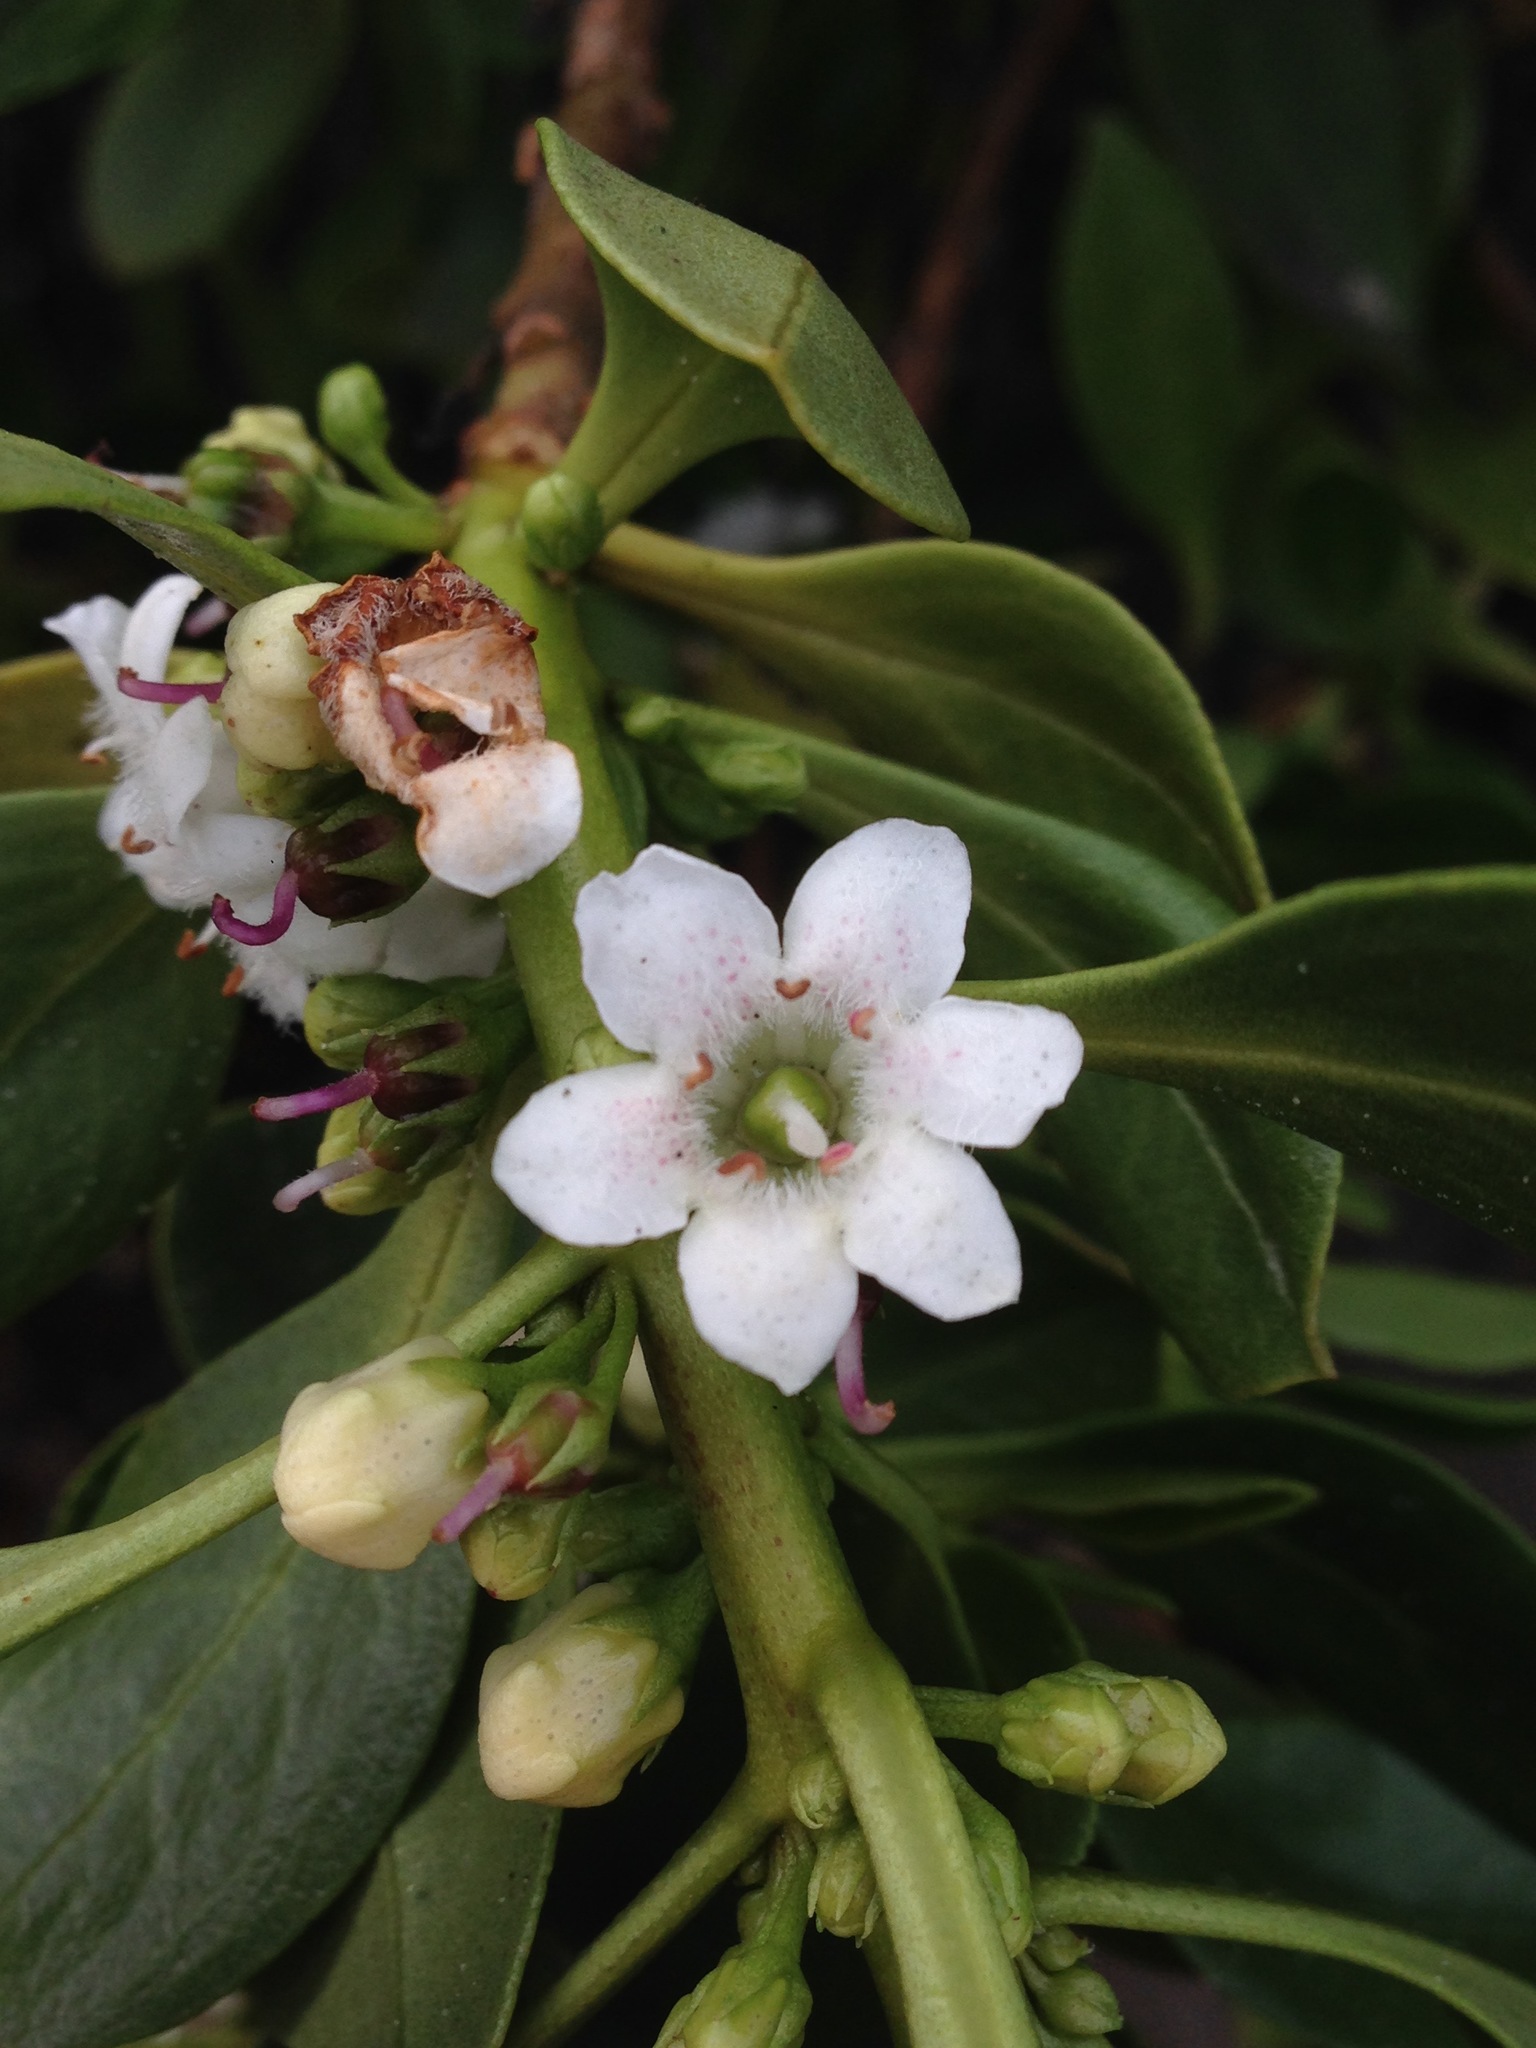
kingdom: Plantae
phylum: Tracheophyta
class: Magnoliopsida
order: Lamiales
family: Scrophulariaceae
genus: Myoporum
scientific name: Myoporum laetum
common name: Ngaio tree
